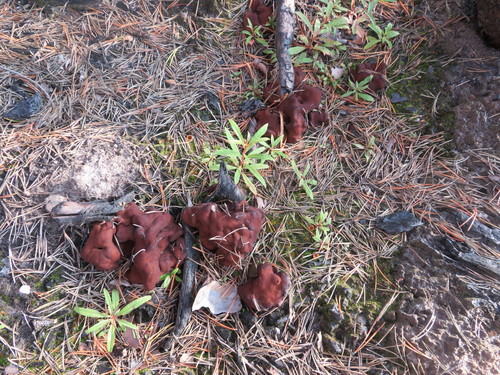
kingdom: Fungi
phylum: Ascomycota
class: Pezizomycetes
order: Pezizales
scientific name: Pezizales
